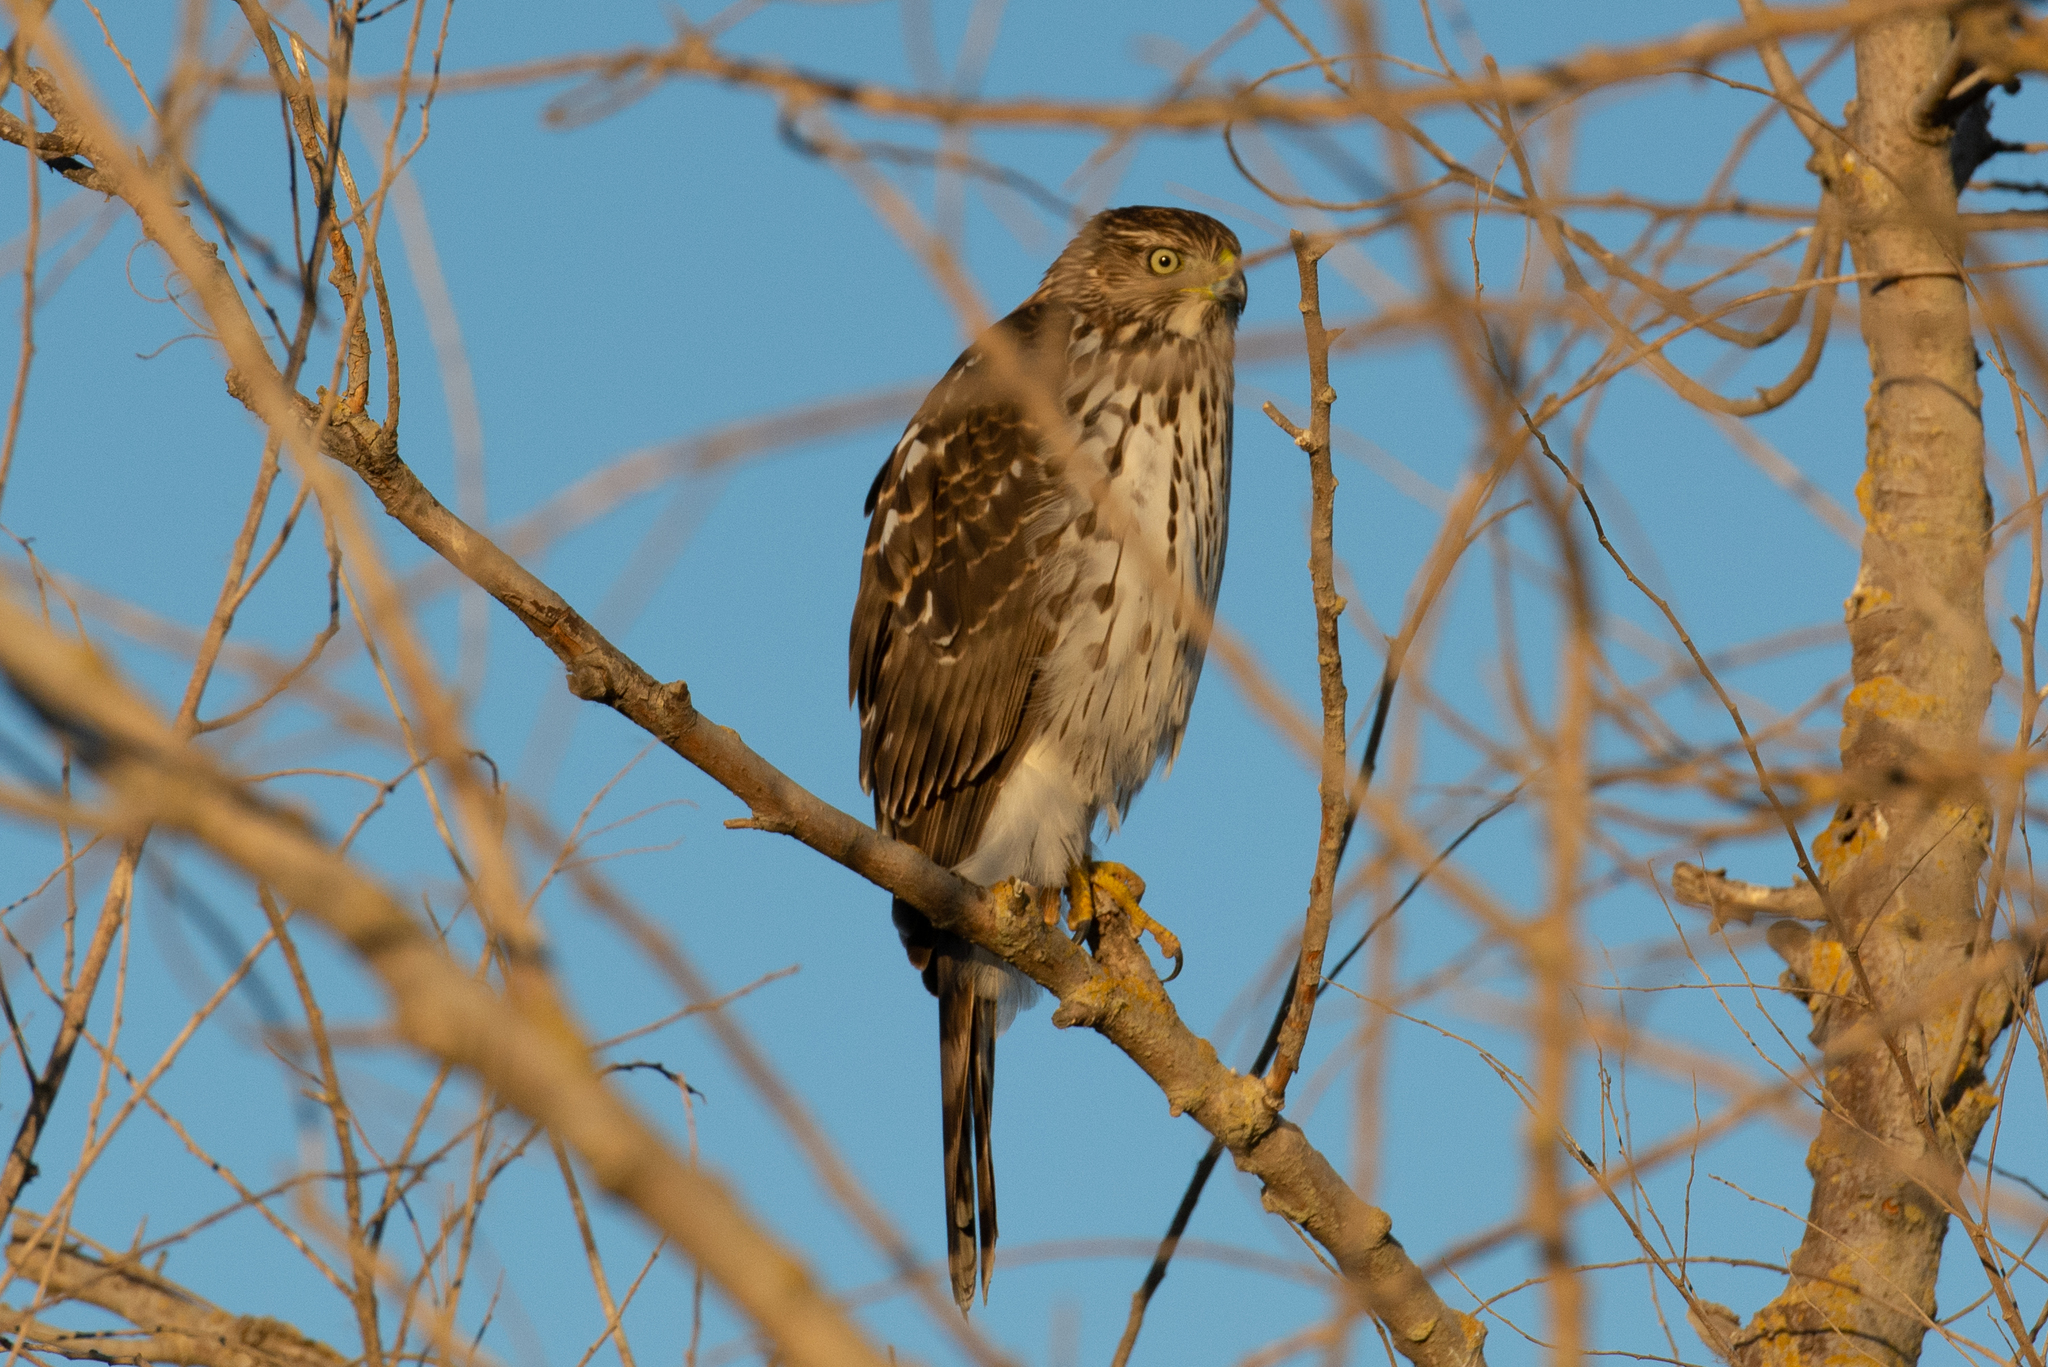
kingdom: Animalia
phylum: Chordata
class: Aves
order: Accipitriformes
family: Accipitridae
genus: Accipiter
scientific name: Accipiter cooperii
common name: Cooper's hawk
